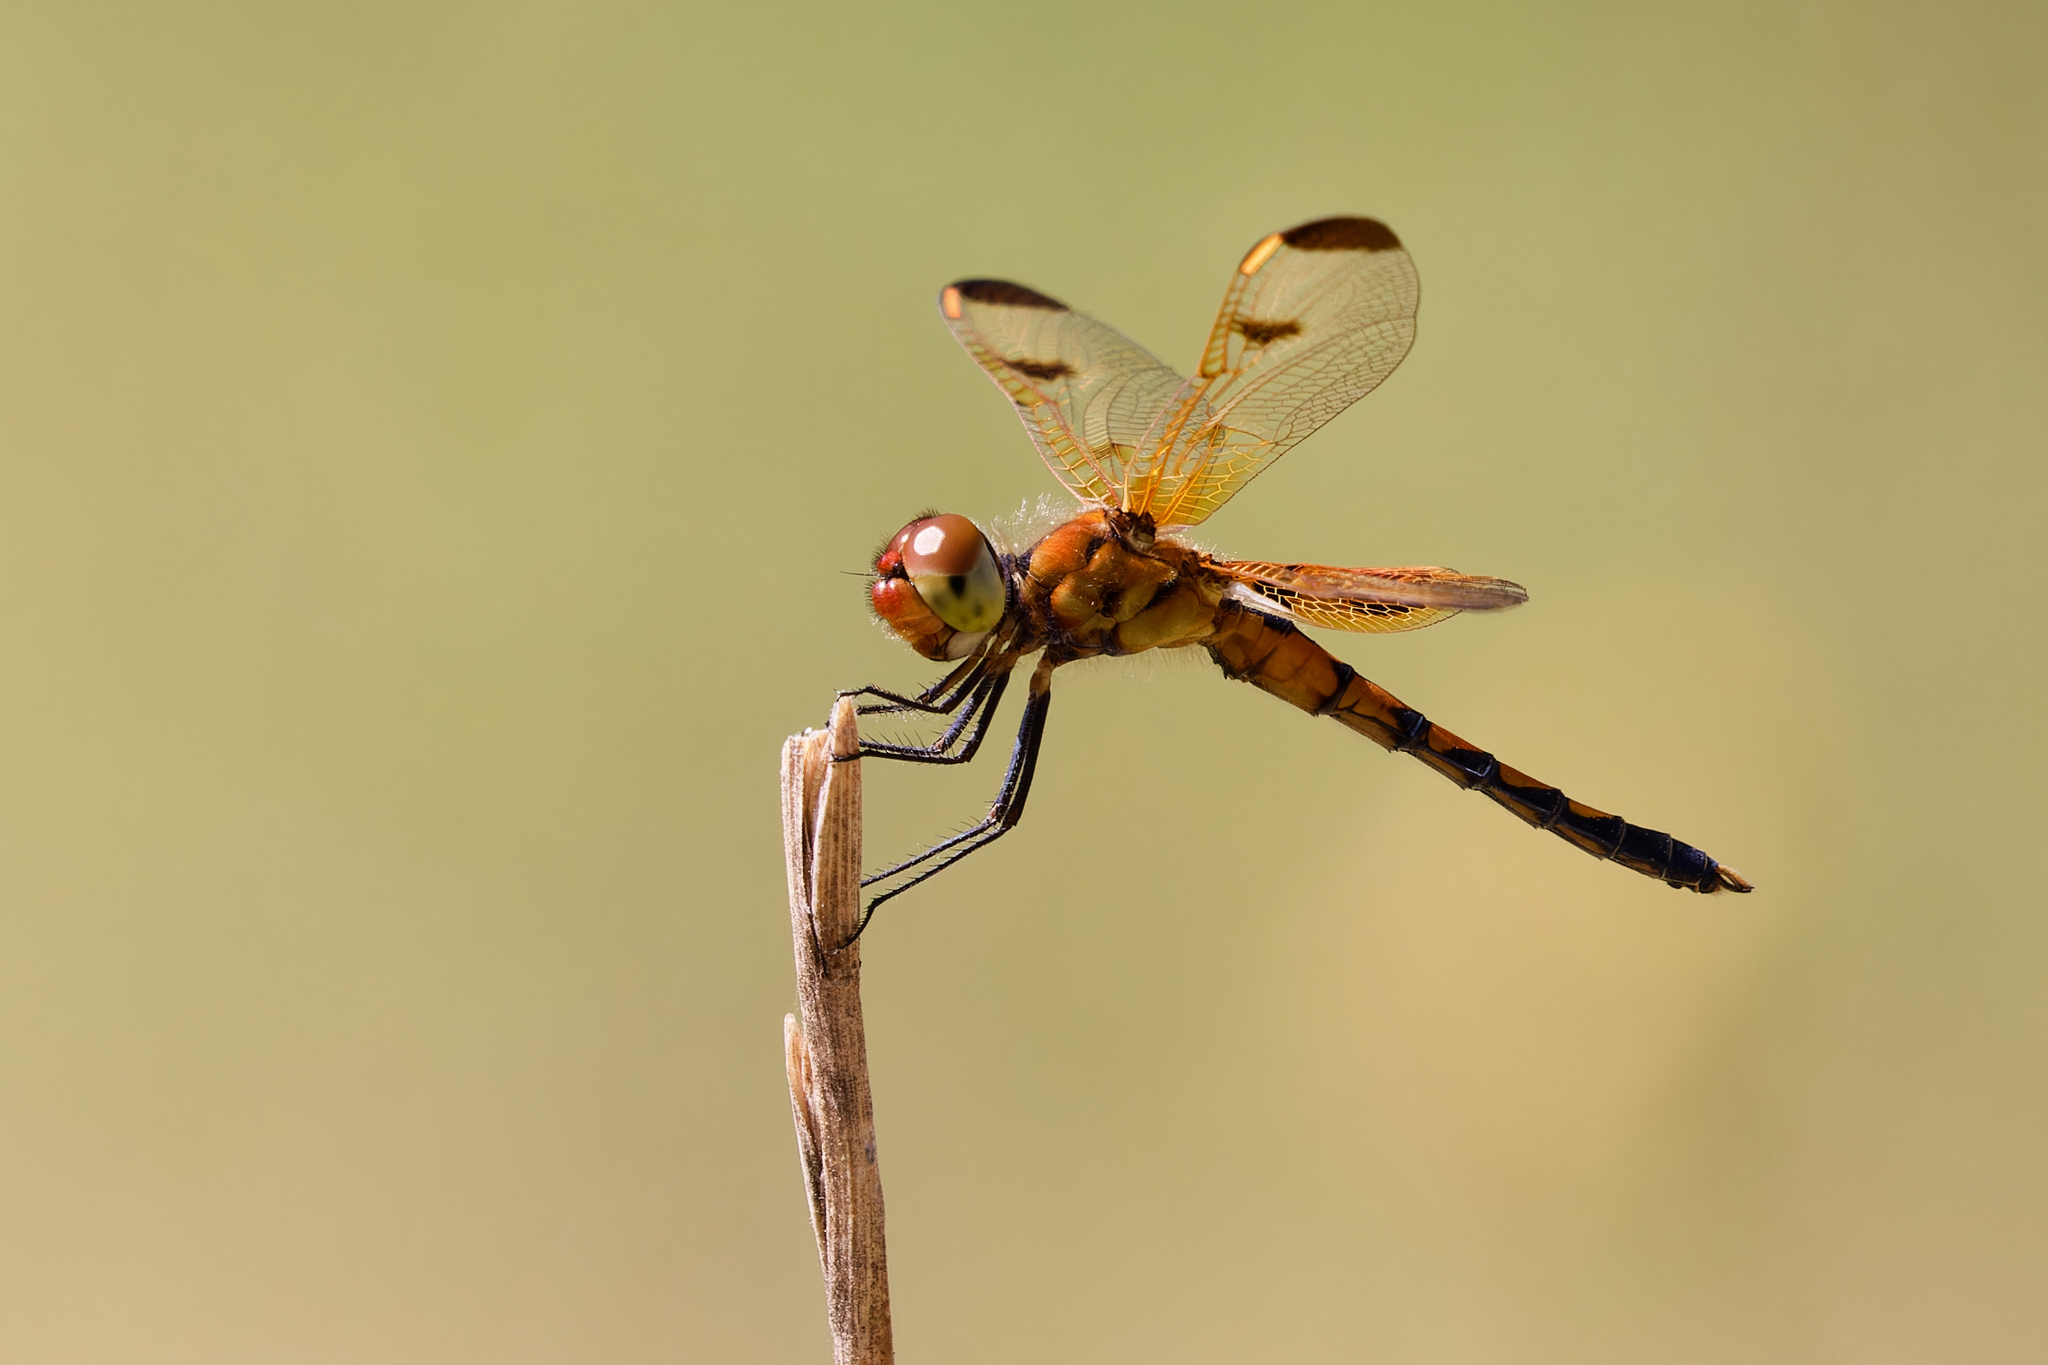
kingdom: Animalia
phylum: Arthropoda
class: Insecta
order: Odonata
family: Libellulidae
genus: Celithemis
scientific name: Celithemis elisa
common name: Calico pennant
